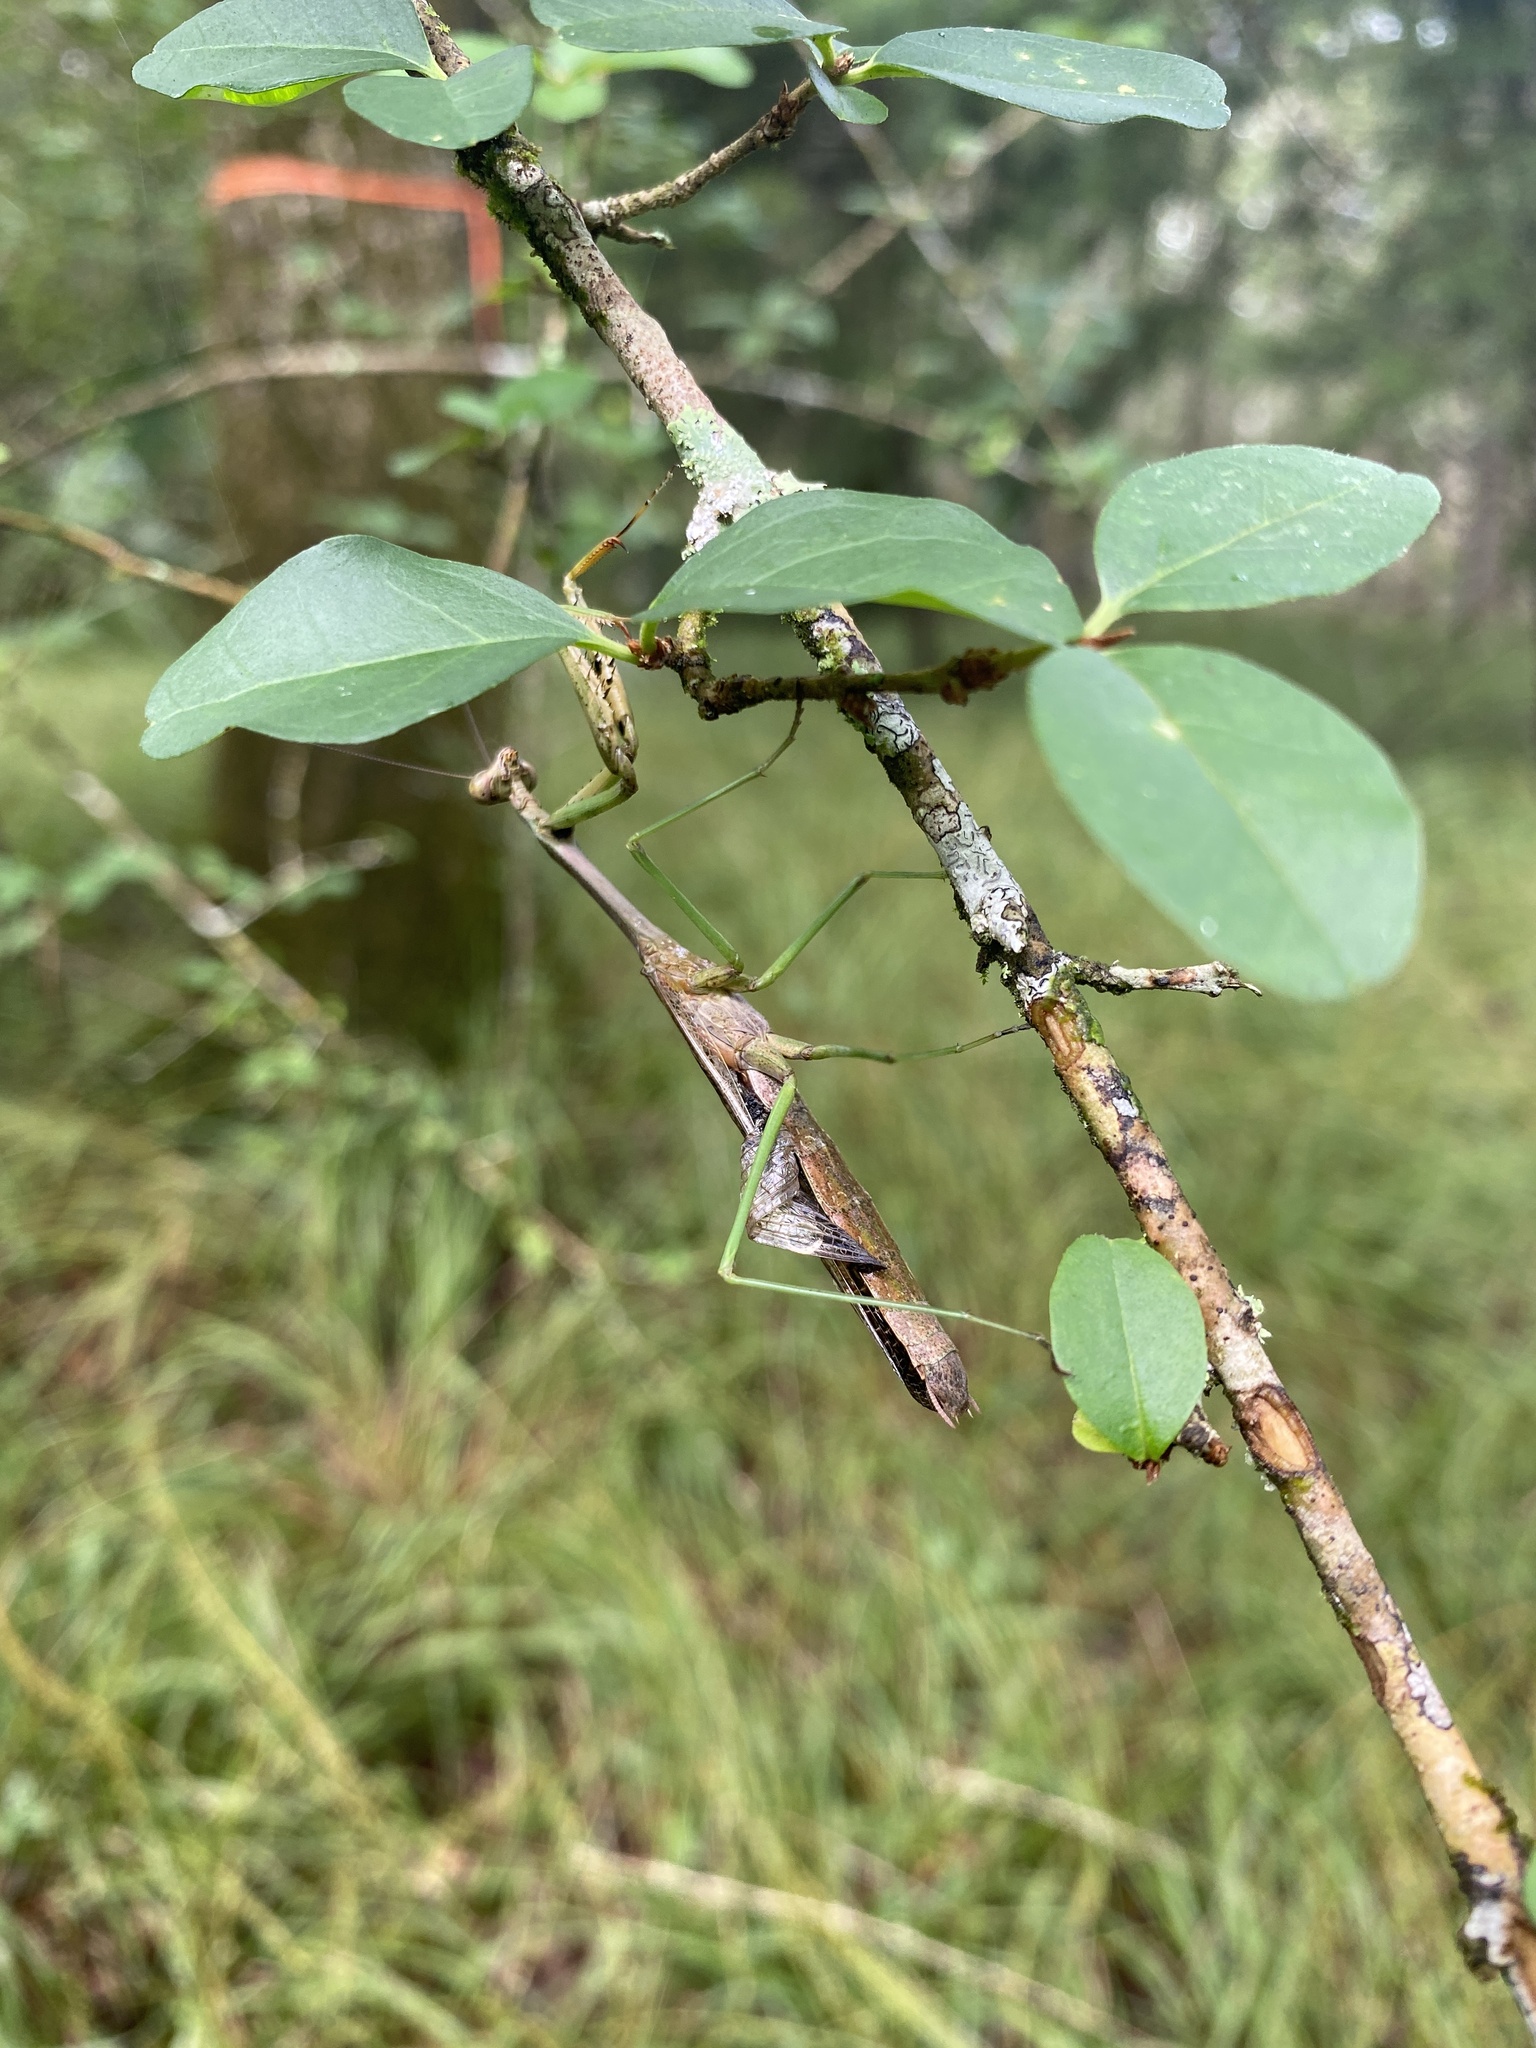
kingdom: Animalia
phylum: Arthropoda
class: Insecta
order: Mantodea
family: Mantidae
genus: Stagmomantis
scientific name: Stagmomantis carolina
